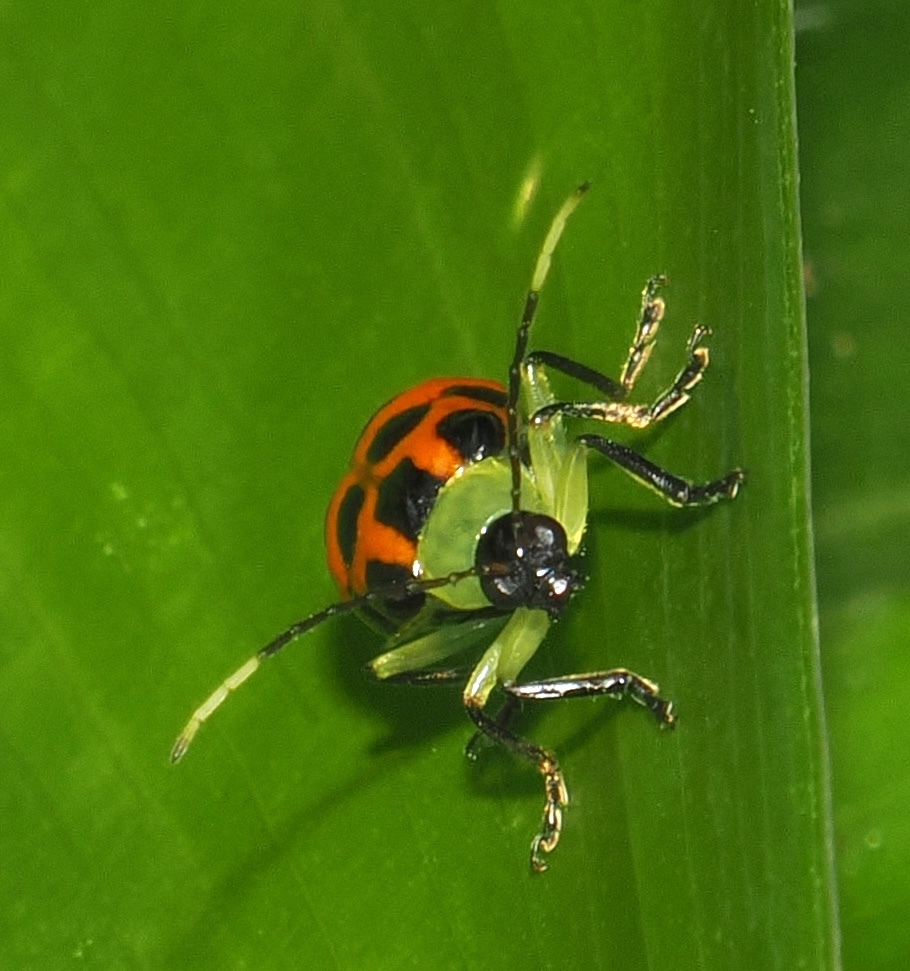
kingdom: Animalia
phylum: Arthropoda
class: Insecta
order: Coleoptera
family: Chrysomelidae
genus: Diabrotica
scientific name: Diabrotica limitata
